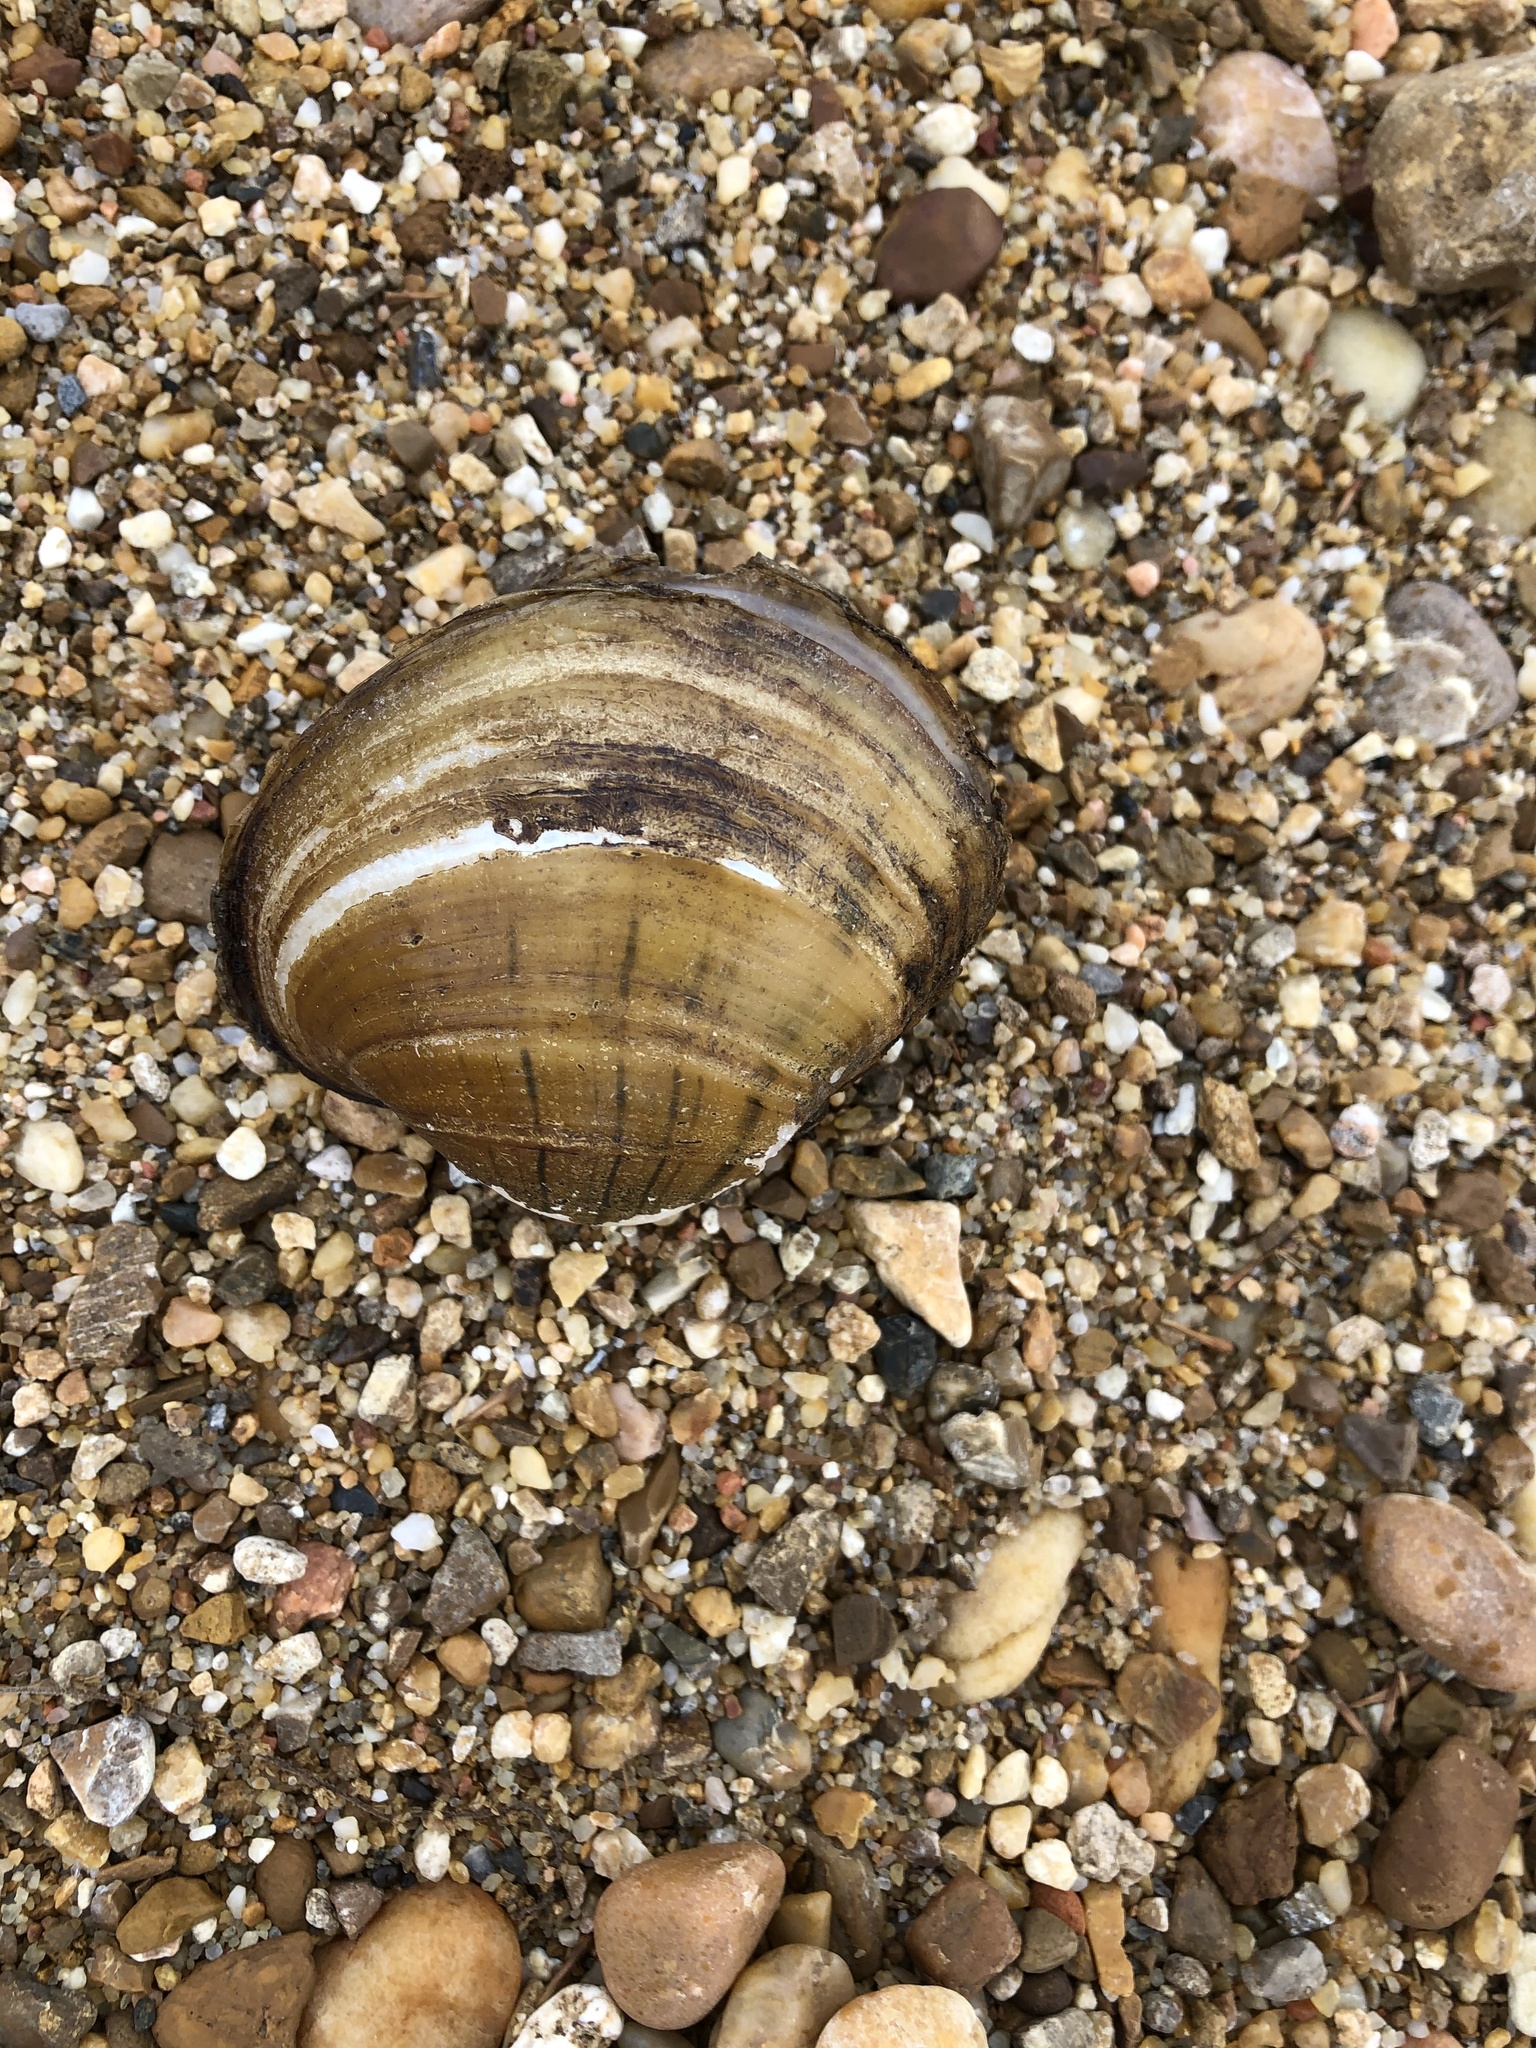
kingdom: Animalia
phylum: Mollusca
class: Bivalvia
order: Unionida
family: Unionidae
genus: Lampsilis
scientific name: Lampsilis ornata
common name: Southern pocketbook
